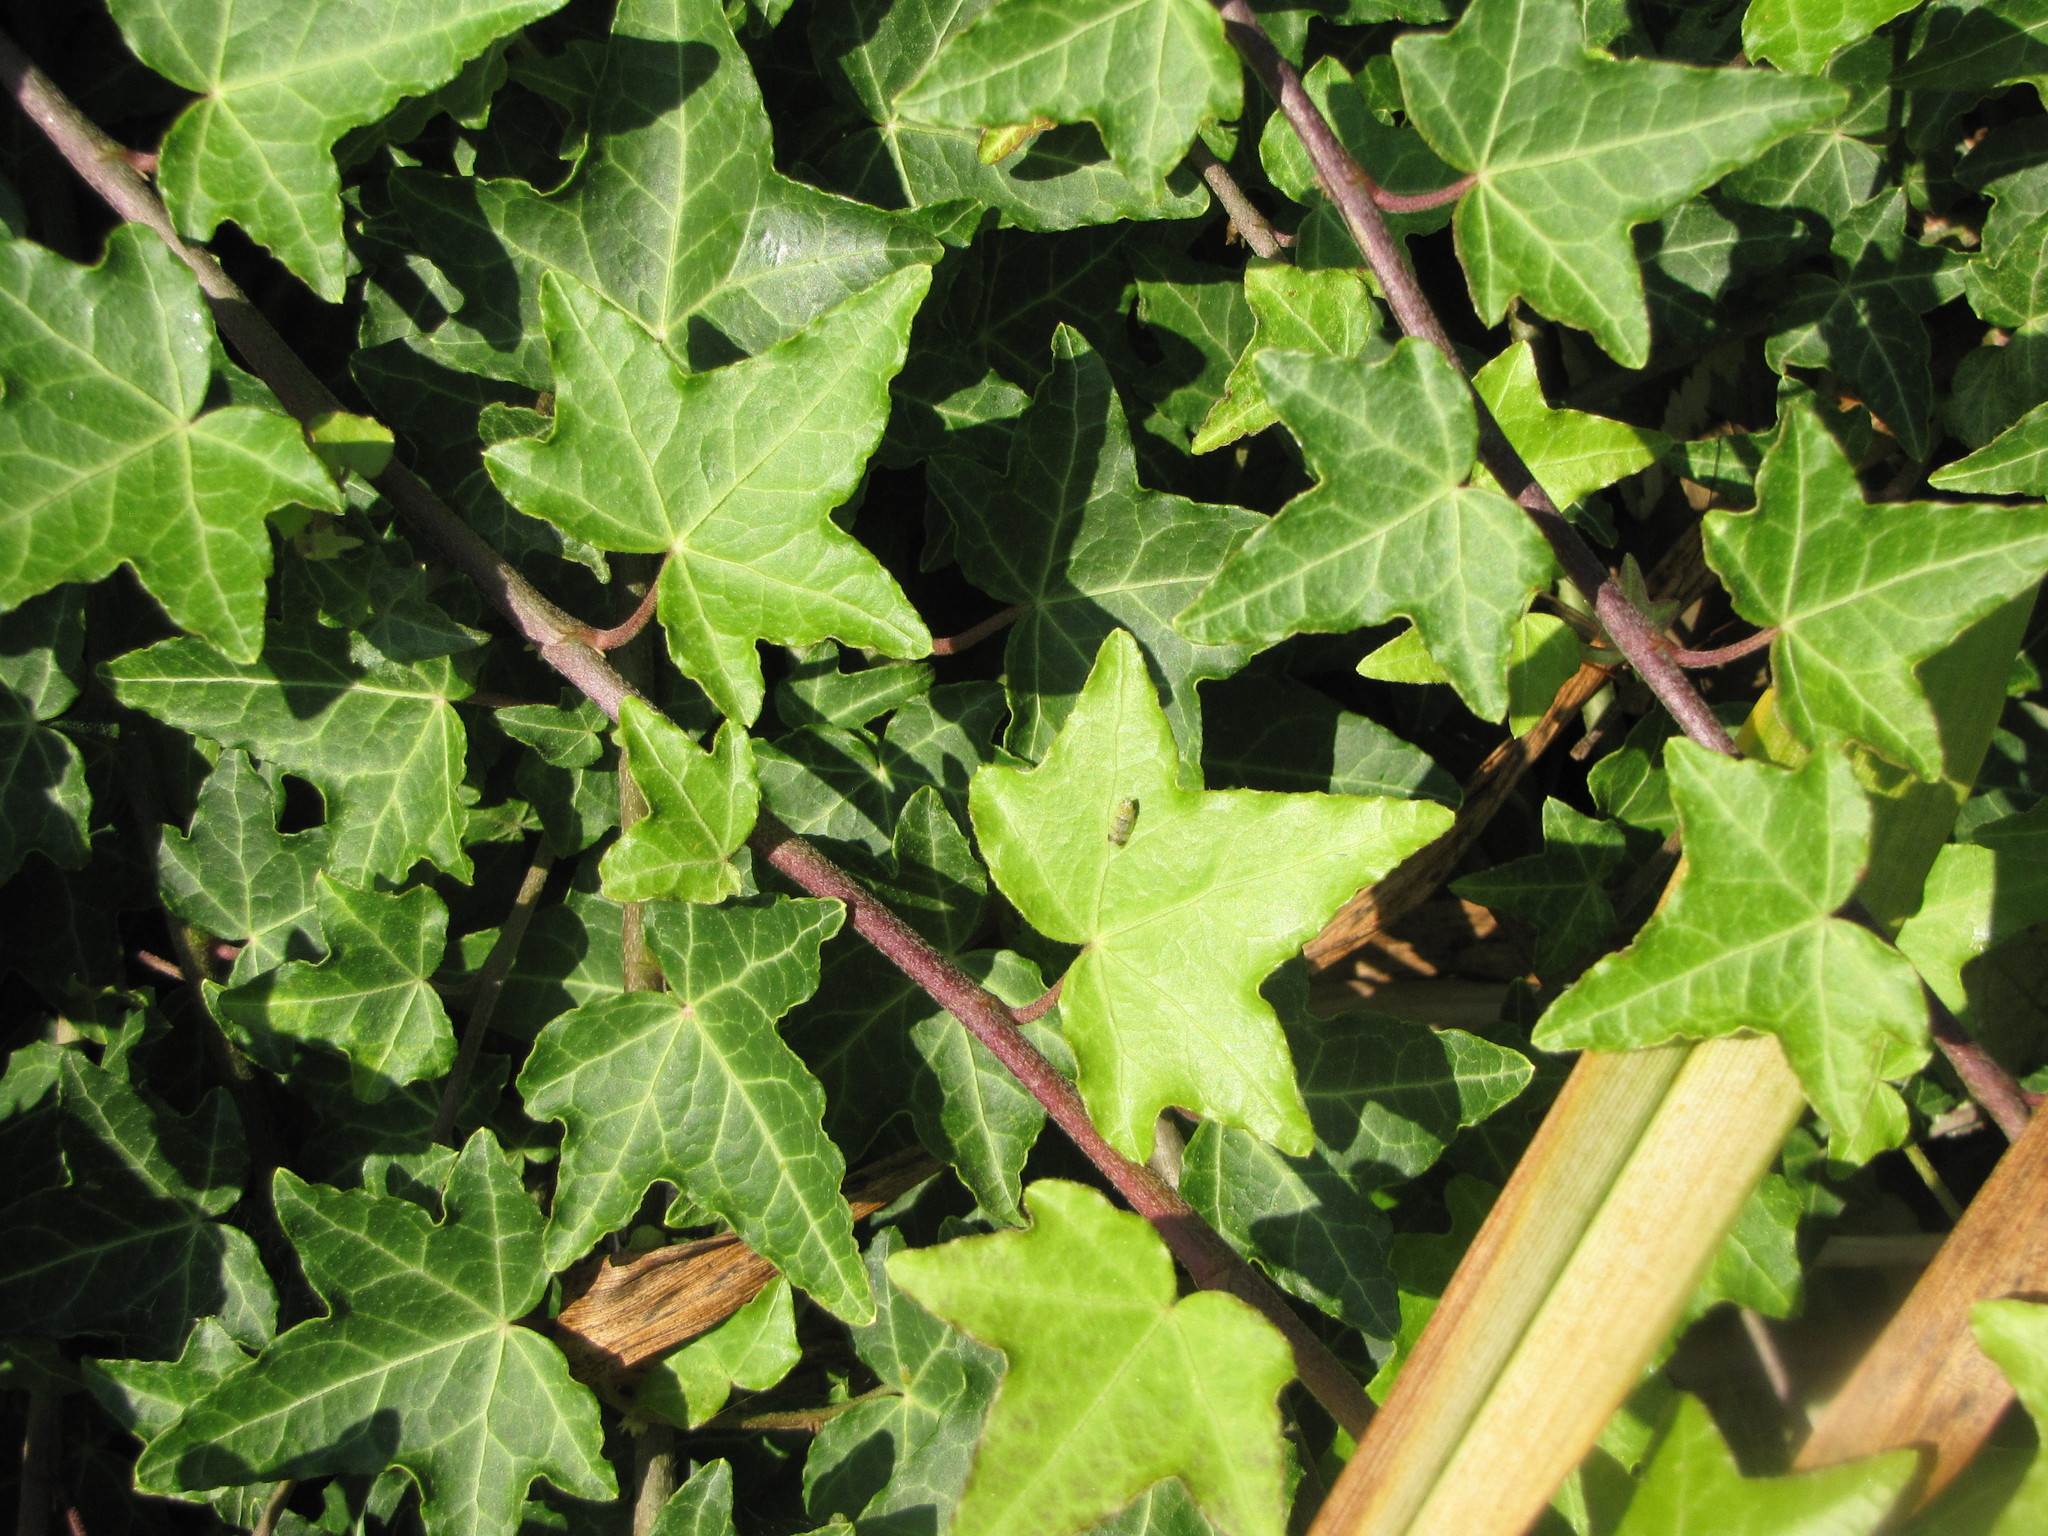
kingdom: Animalia
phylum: Arthropoda
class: Insecta
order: Hemiptera
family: Cicadellidae
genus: Japananus
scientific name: Japananus hyalinus
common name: The japanese maple leafhopper
